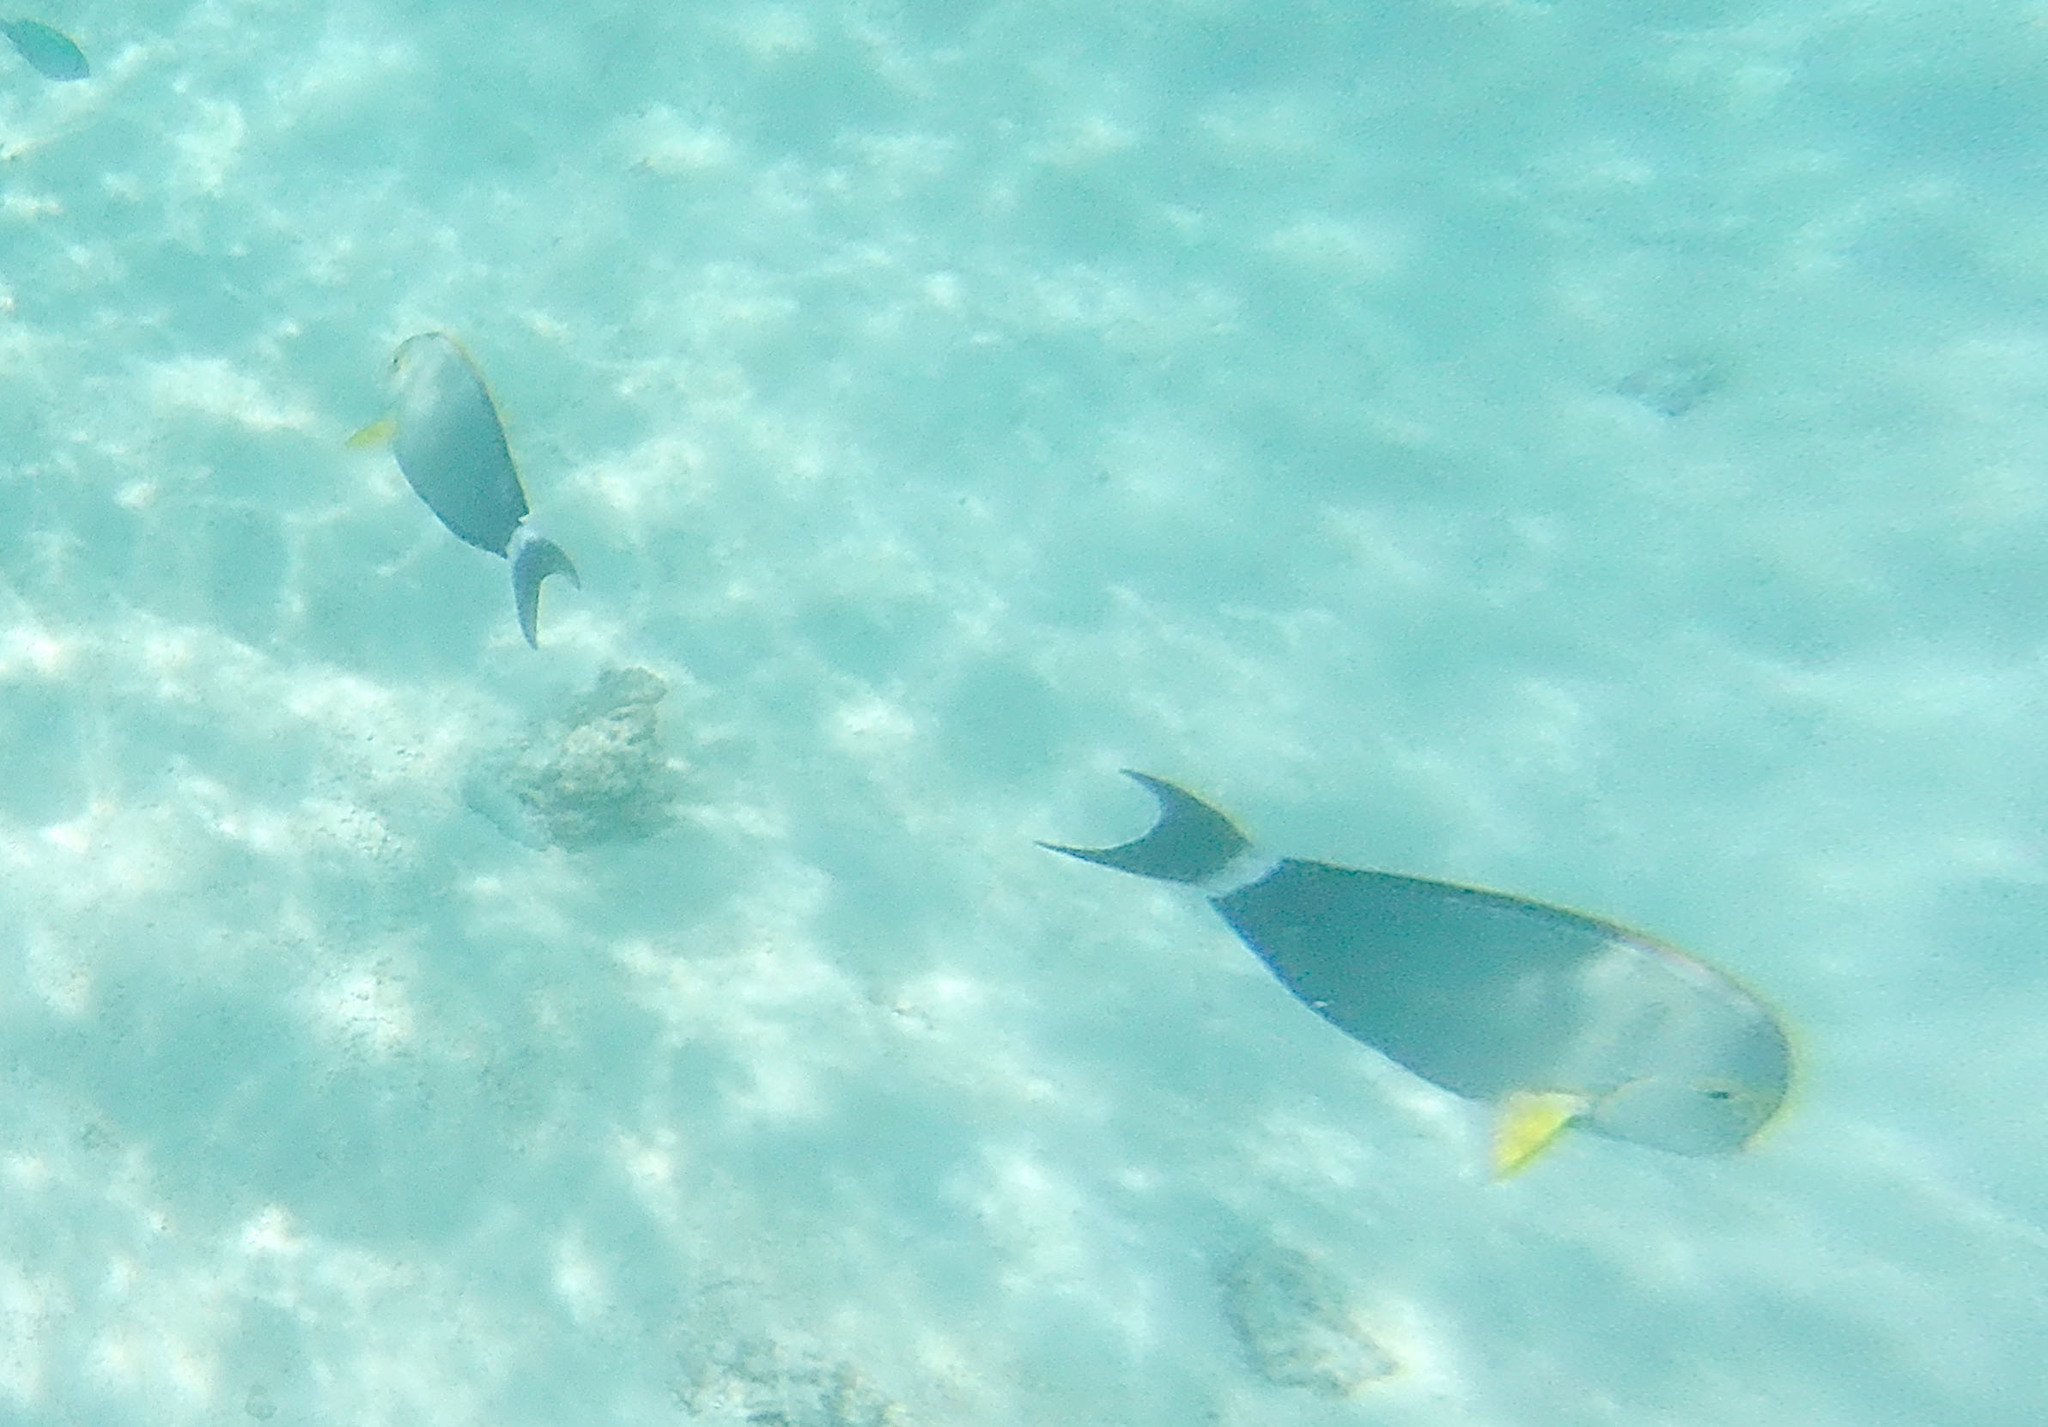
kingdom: Animalia
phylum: Chordata
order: Perciformes
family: Acanthuridae
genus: Acanthurus
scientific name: Acanthurus xanthopterus
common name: Cuvier's surgeonfish
